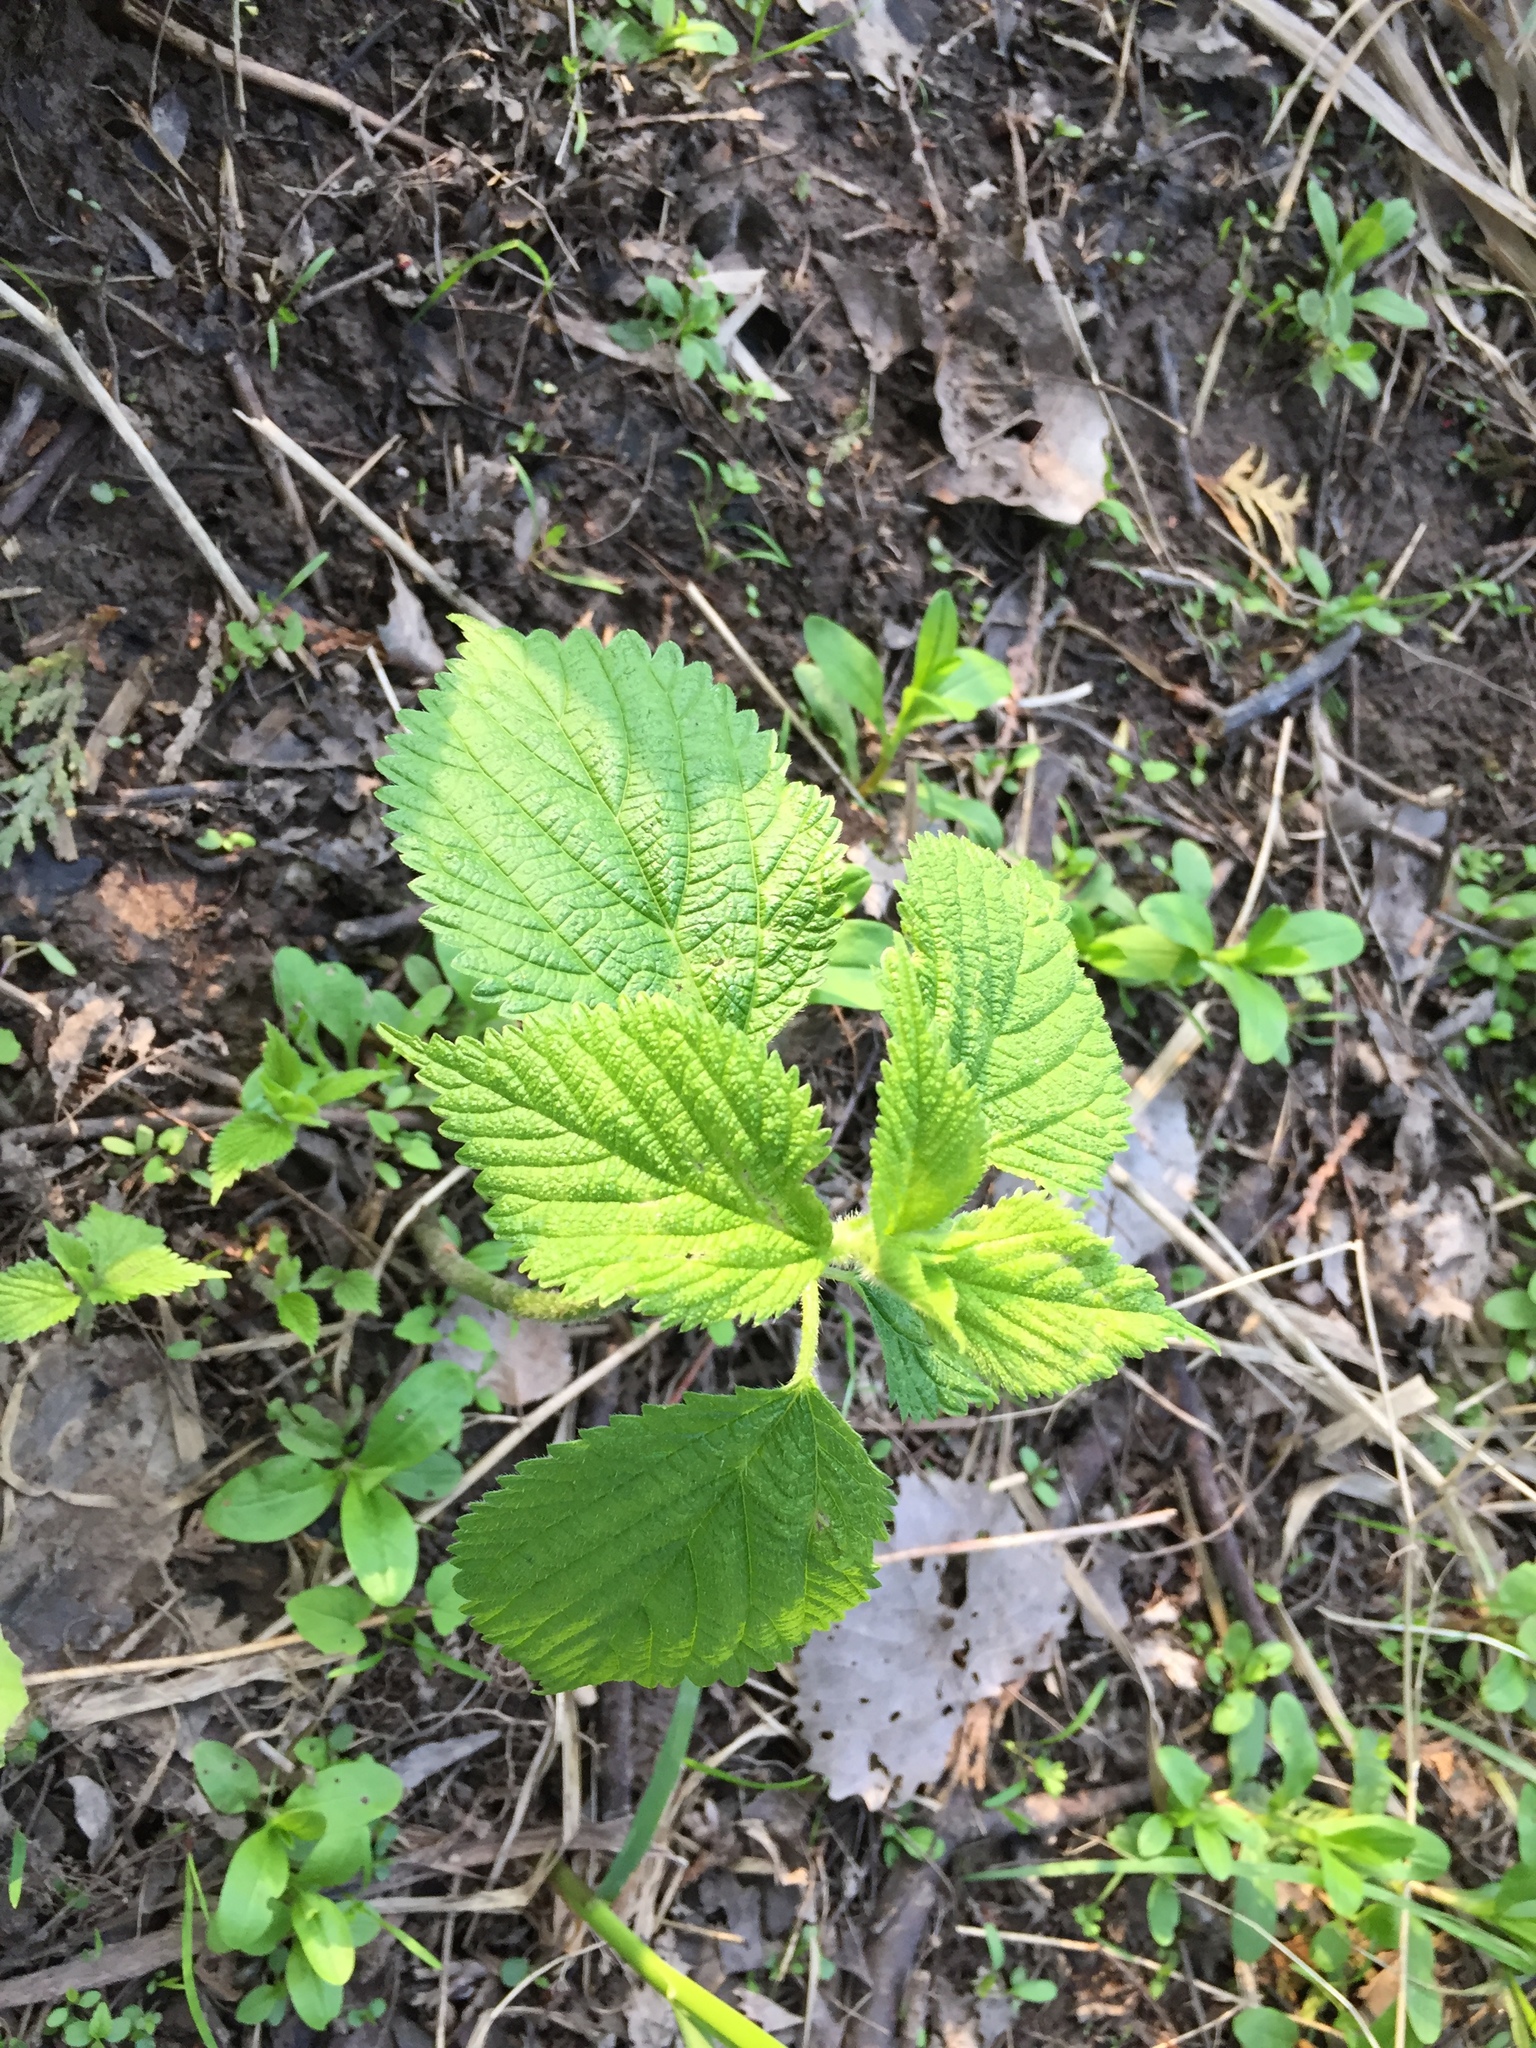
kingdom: Plantae
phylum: Tracheophyta
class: Magnoliopsida
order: Rosales
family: Urticaceae
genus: Laportea
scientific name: Laportea canadensis
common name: Canada nettle
